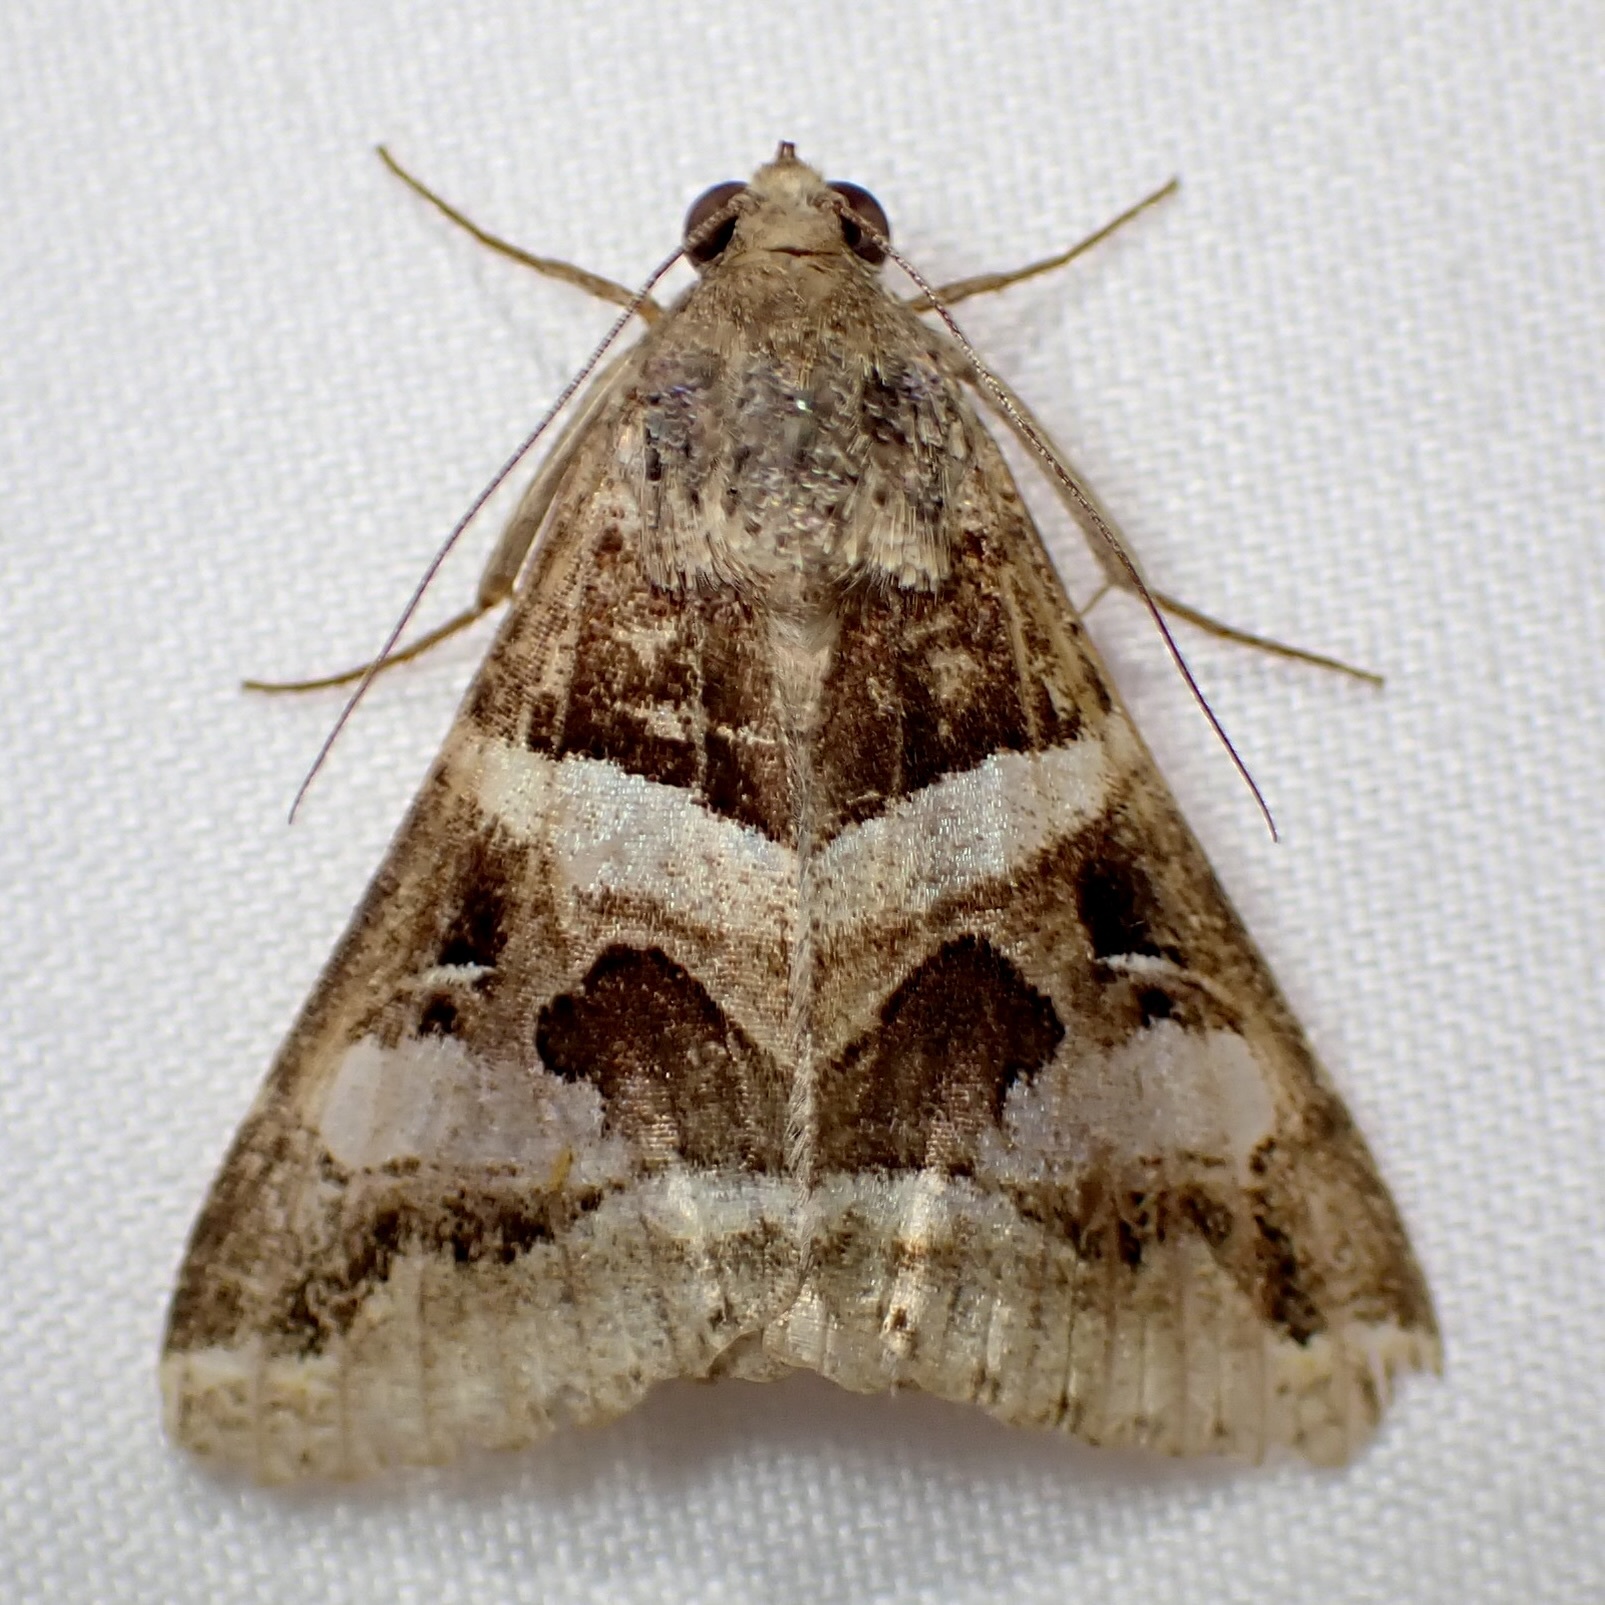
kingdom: Animalia
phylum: Arthropoda
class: Insecta
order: Lepidoptera
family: Erebidae
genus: Melipotis
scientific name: Melipotis perpendicularis
